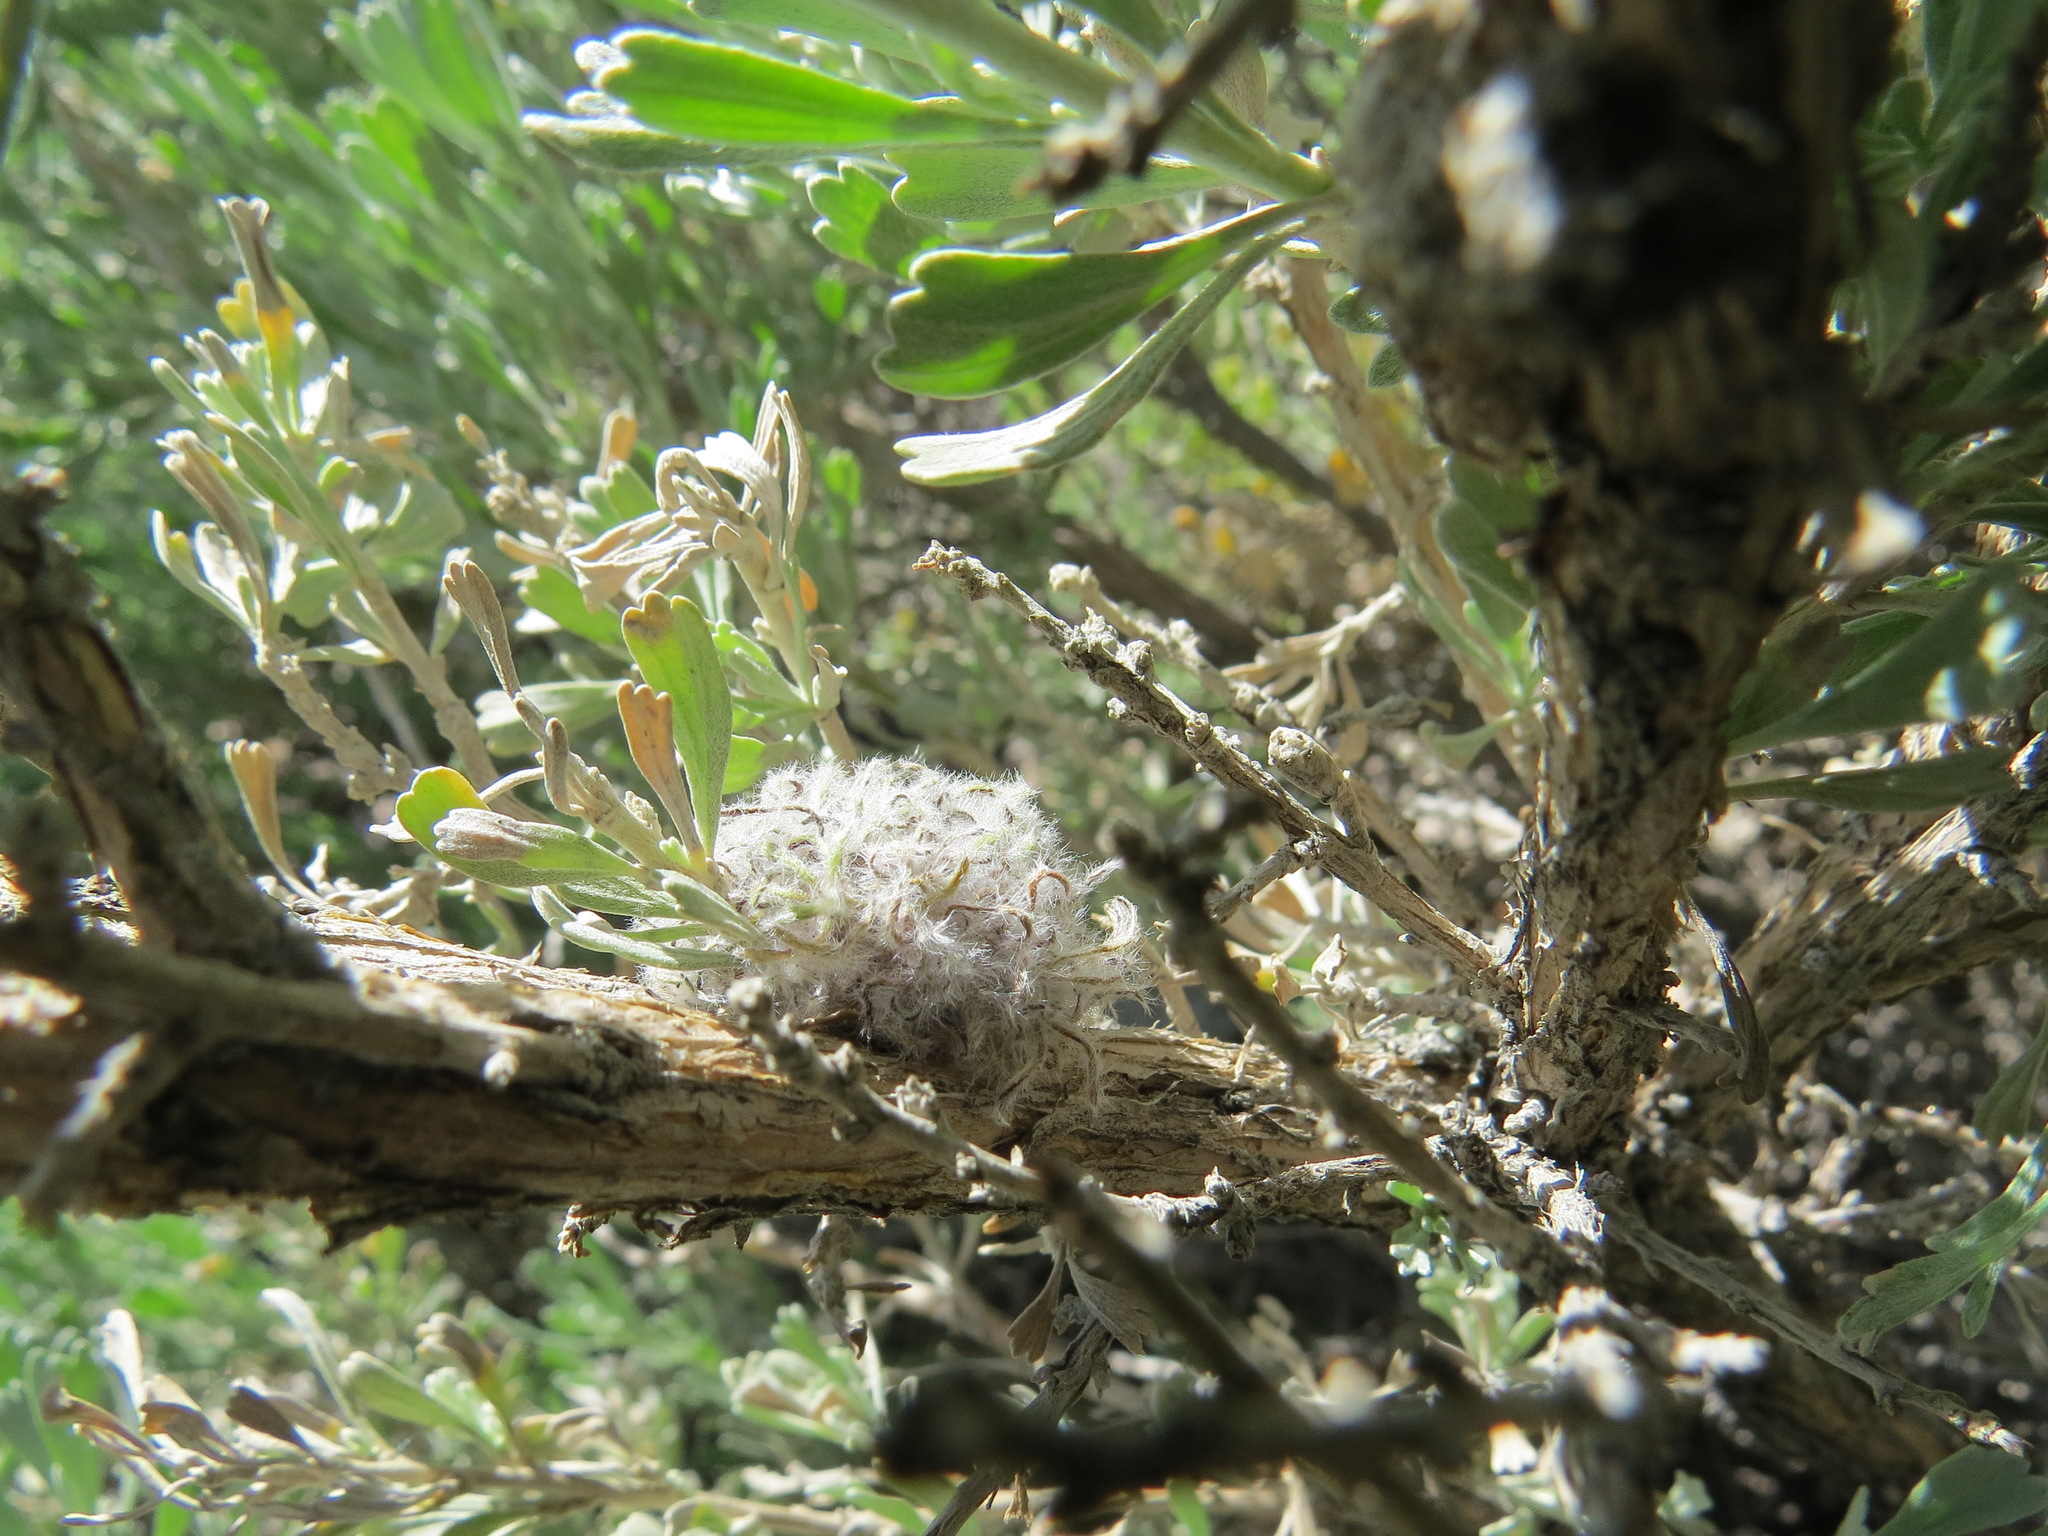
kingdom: Animalia
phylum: Arthropoda
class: Insecta
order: Diptera
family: Cecidomyiidae
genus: Rhopalomyia
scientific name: Rhopalomyia medusirrasa
